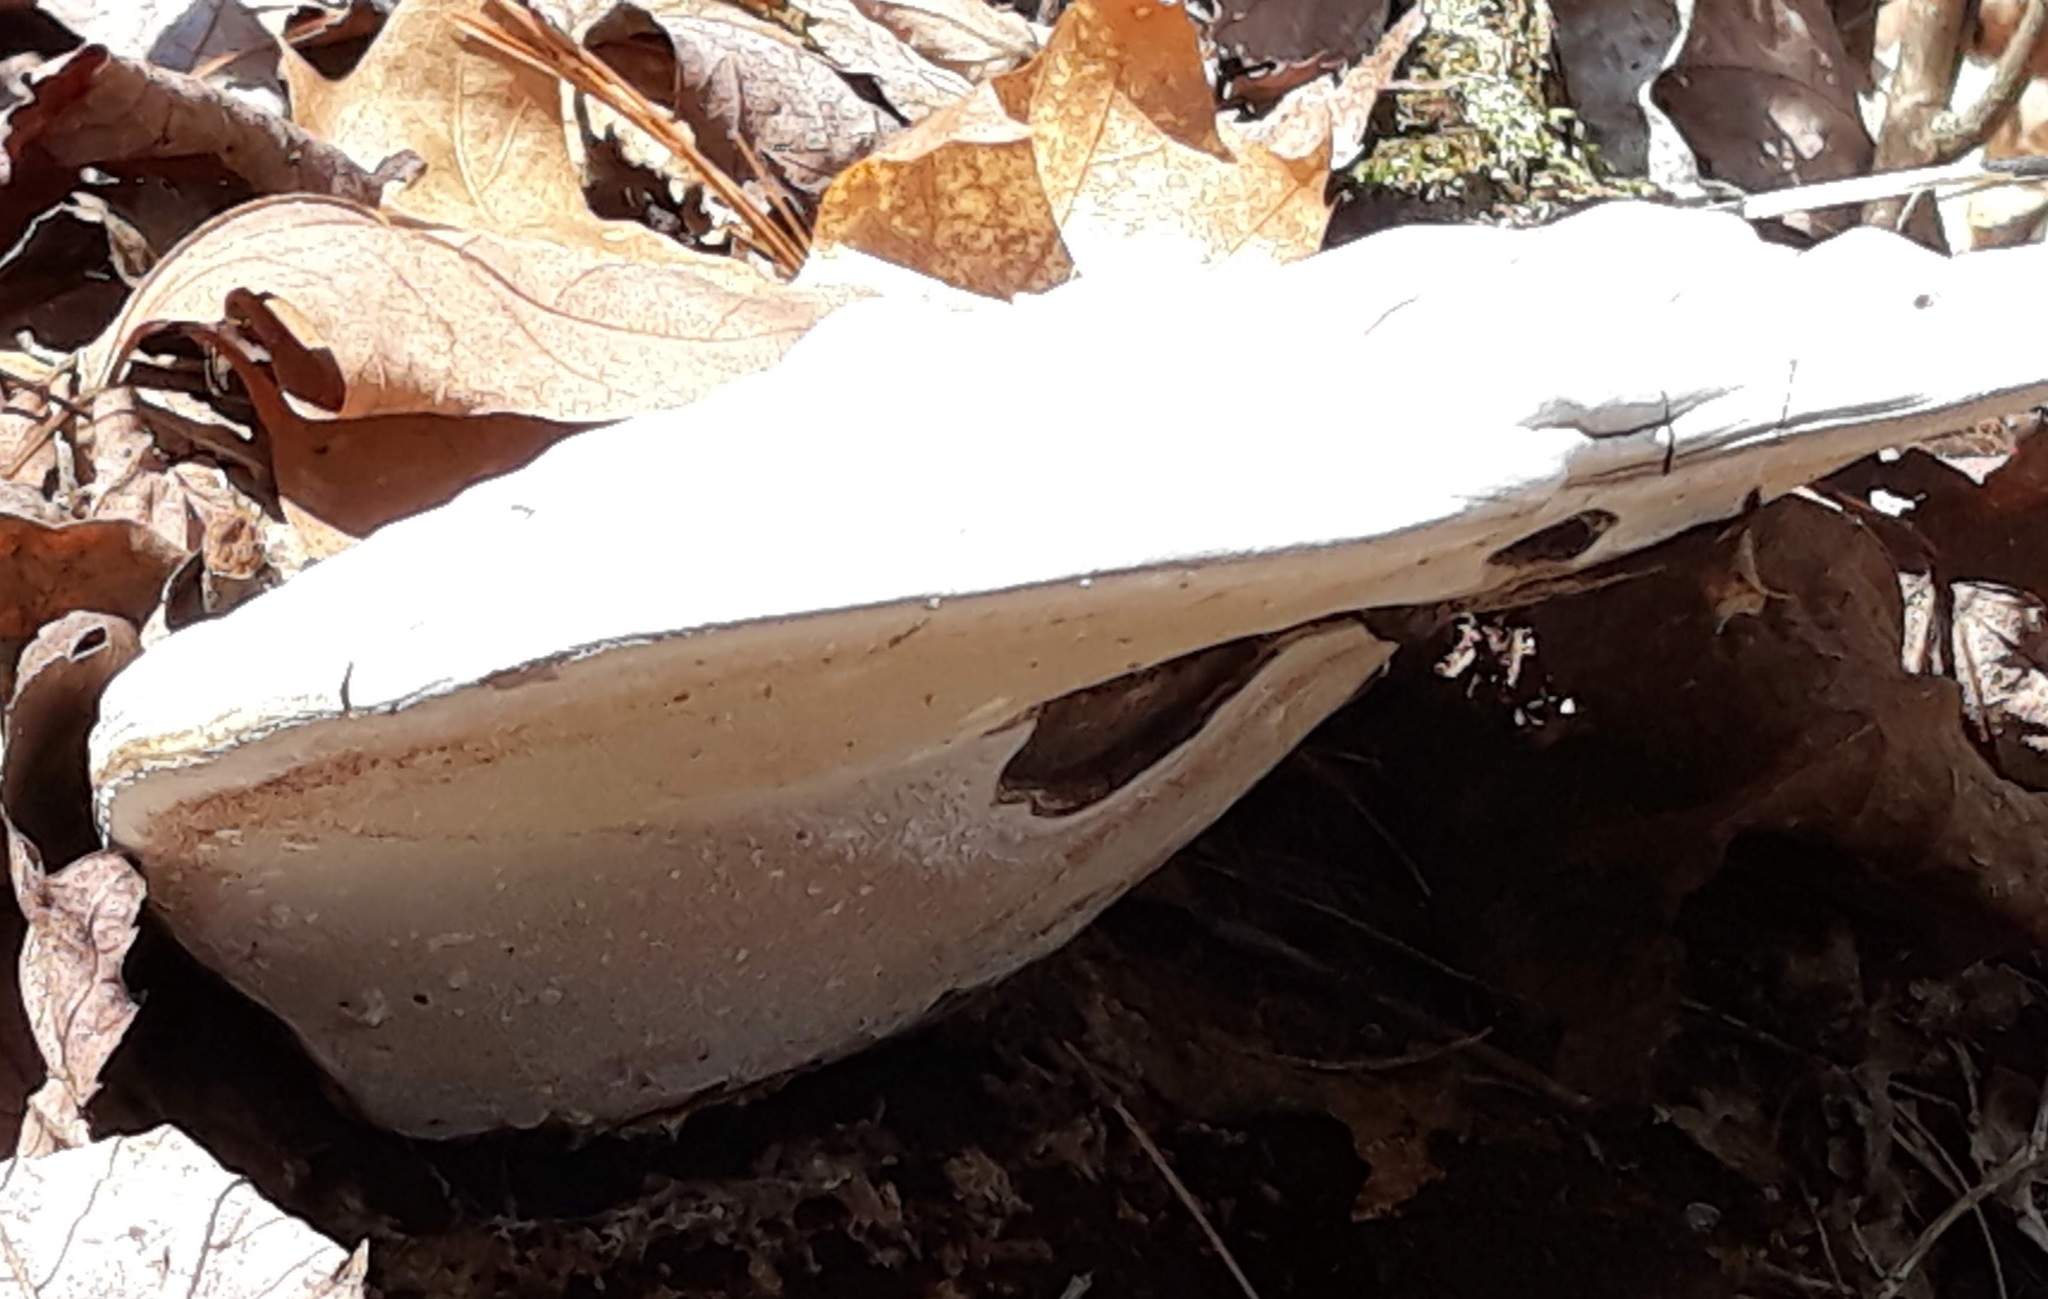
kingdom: Fungi
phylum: Basidiomycota
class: Agaricomycetes
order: Polyporales
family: Polyporaceae
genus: Ganoderma
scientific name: Ganoderma applanatum
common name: Artist's bracket
